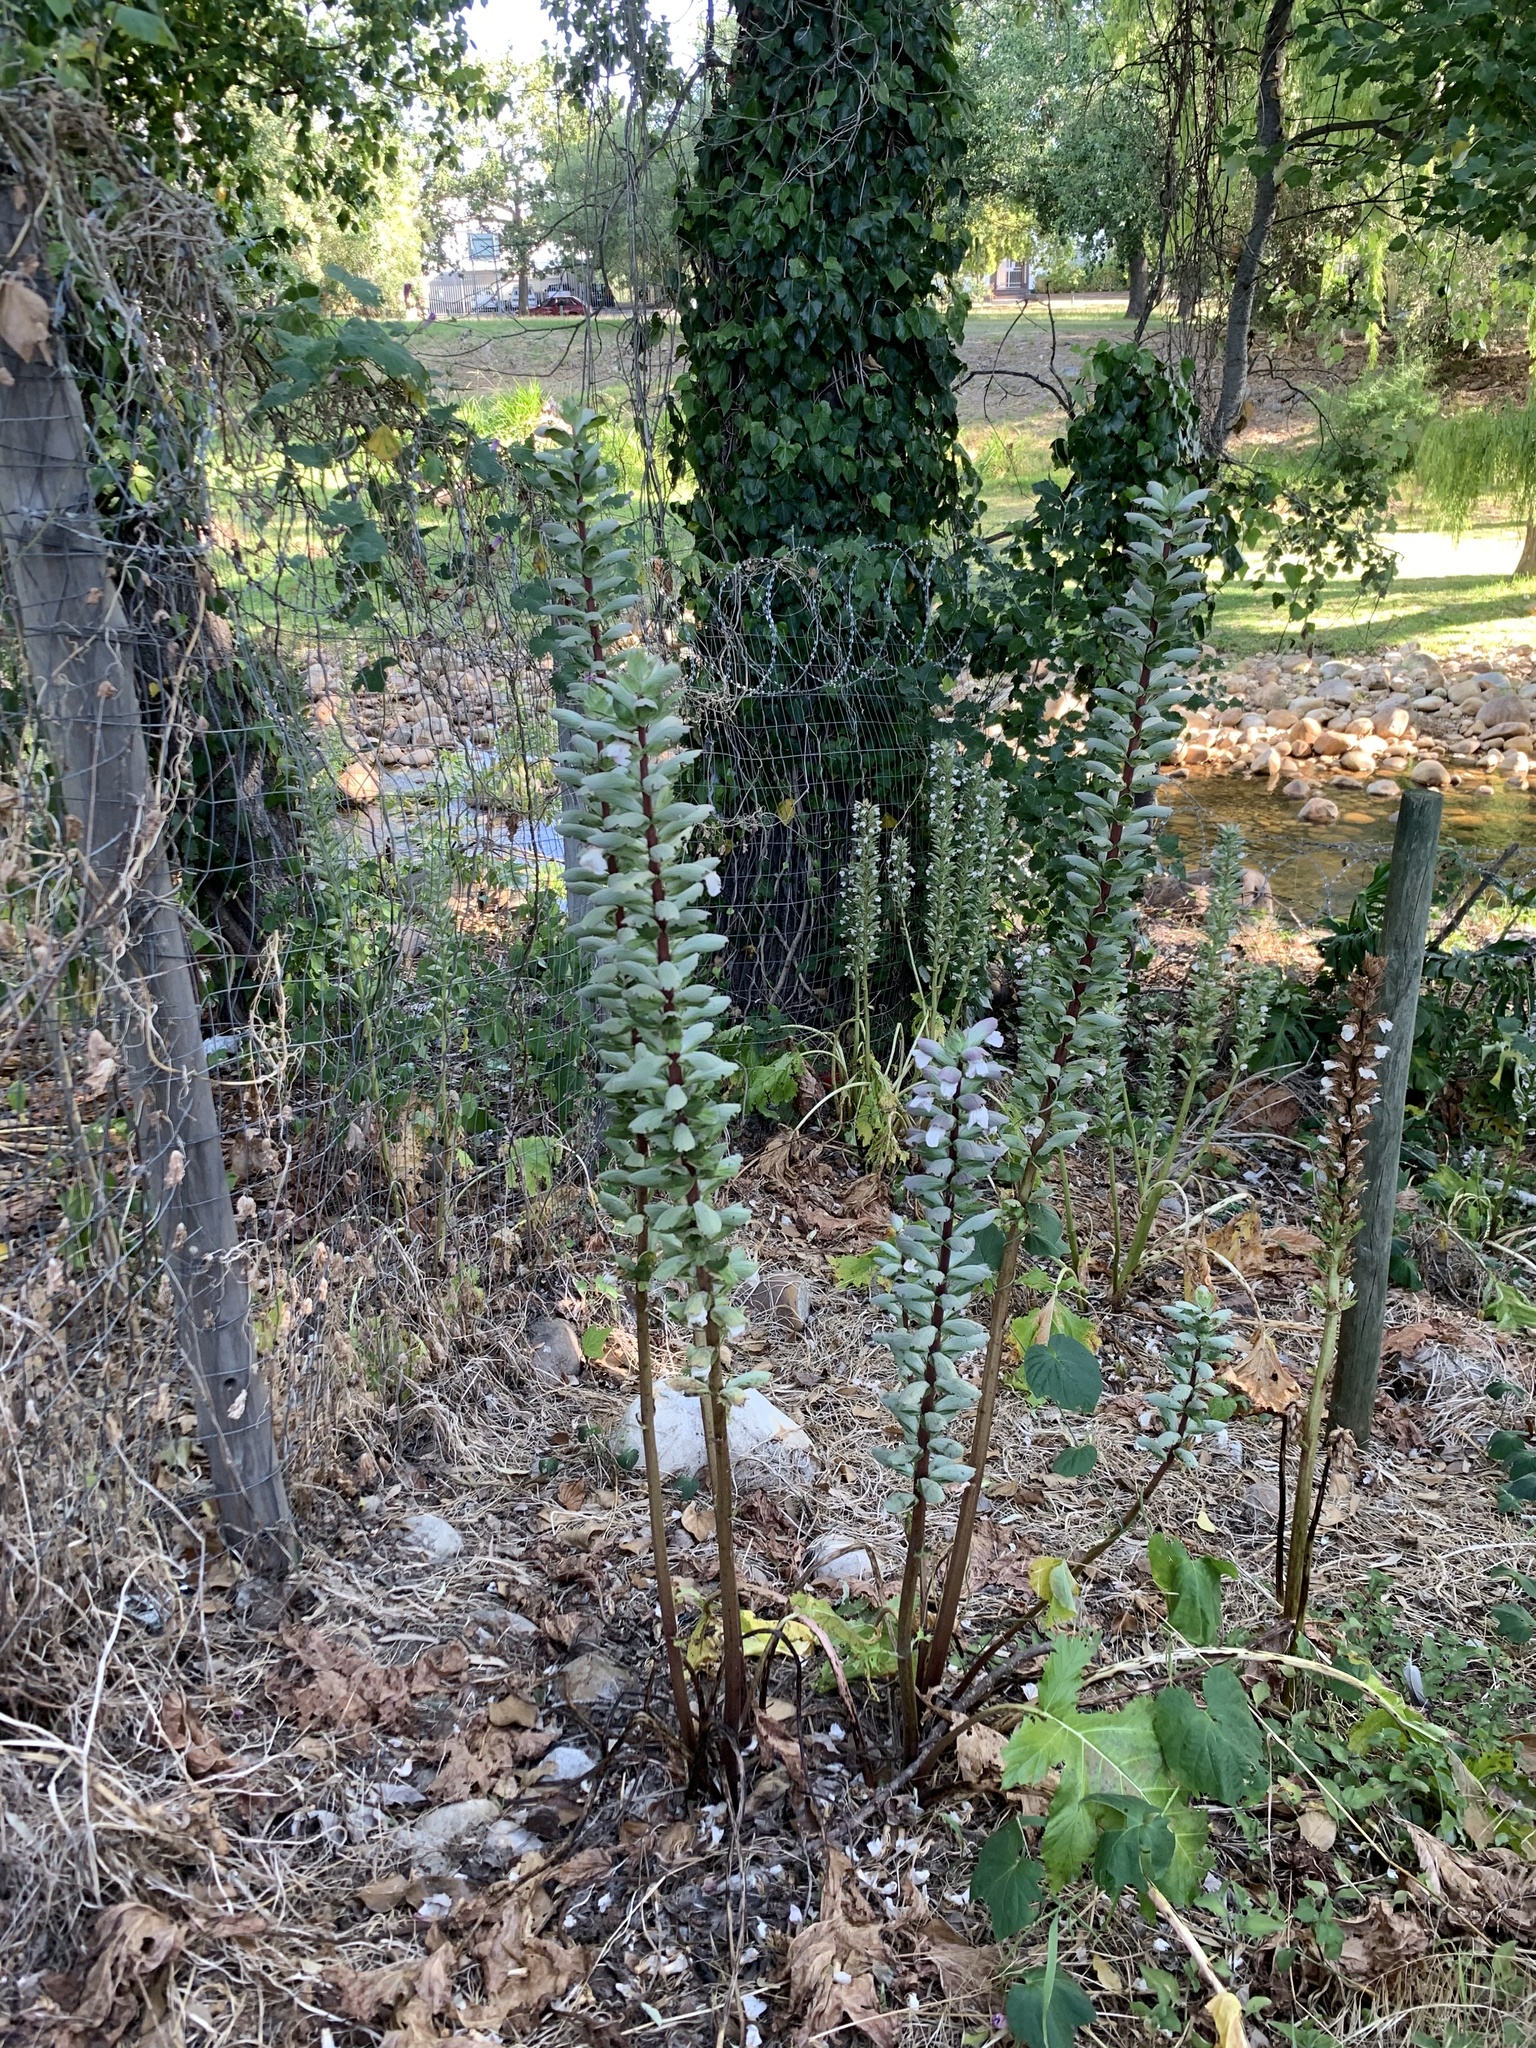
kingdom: Plantae
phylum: Tracheophyta
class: Magnoliopsida
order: Lamiales
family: Acanthaceae
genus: Acanthus
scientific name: Acanthus mollis
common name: Bear's-breech
